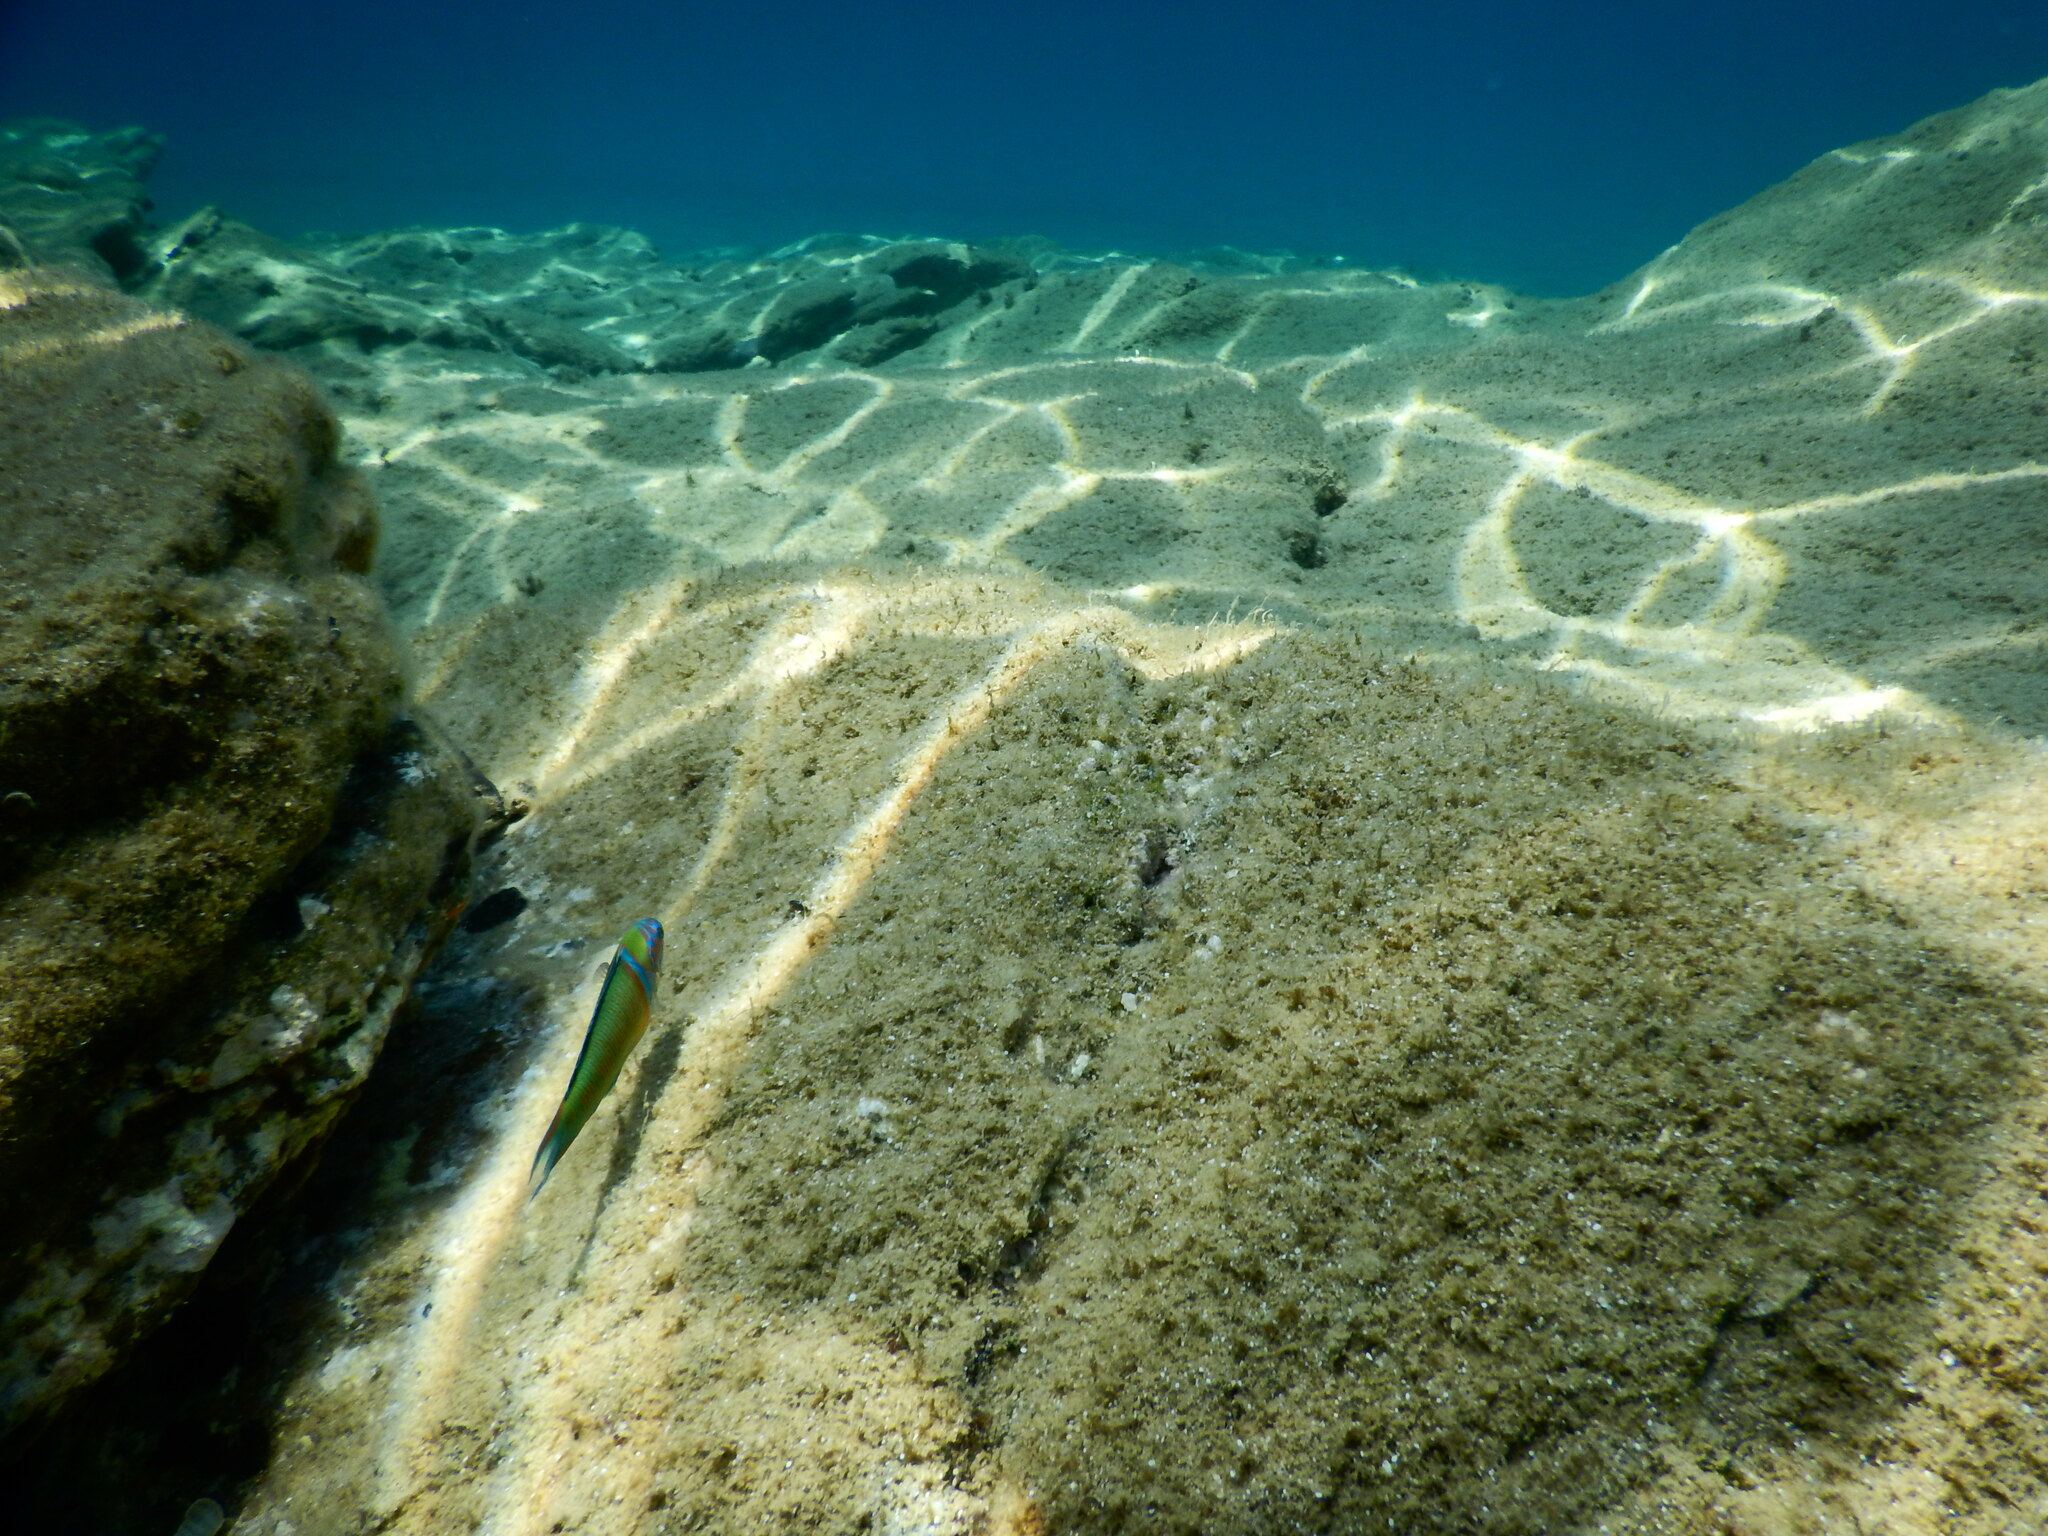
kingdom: Animalia
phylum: Chordata
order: Perciformes
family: Labridae
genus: Thalassoma
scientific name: Thalassoma pavo
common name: Ornate wrasse
